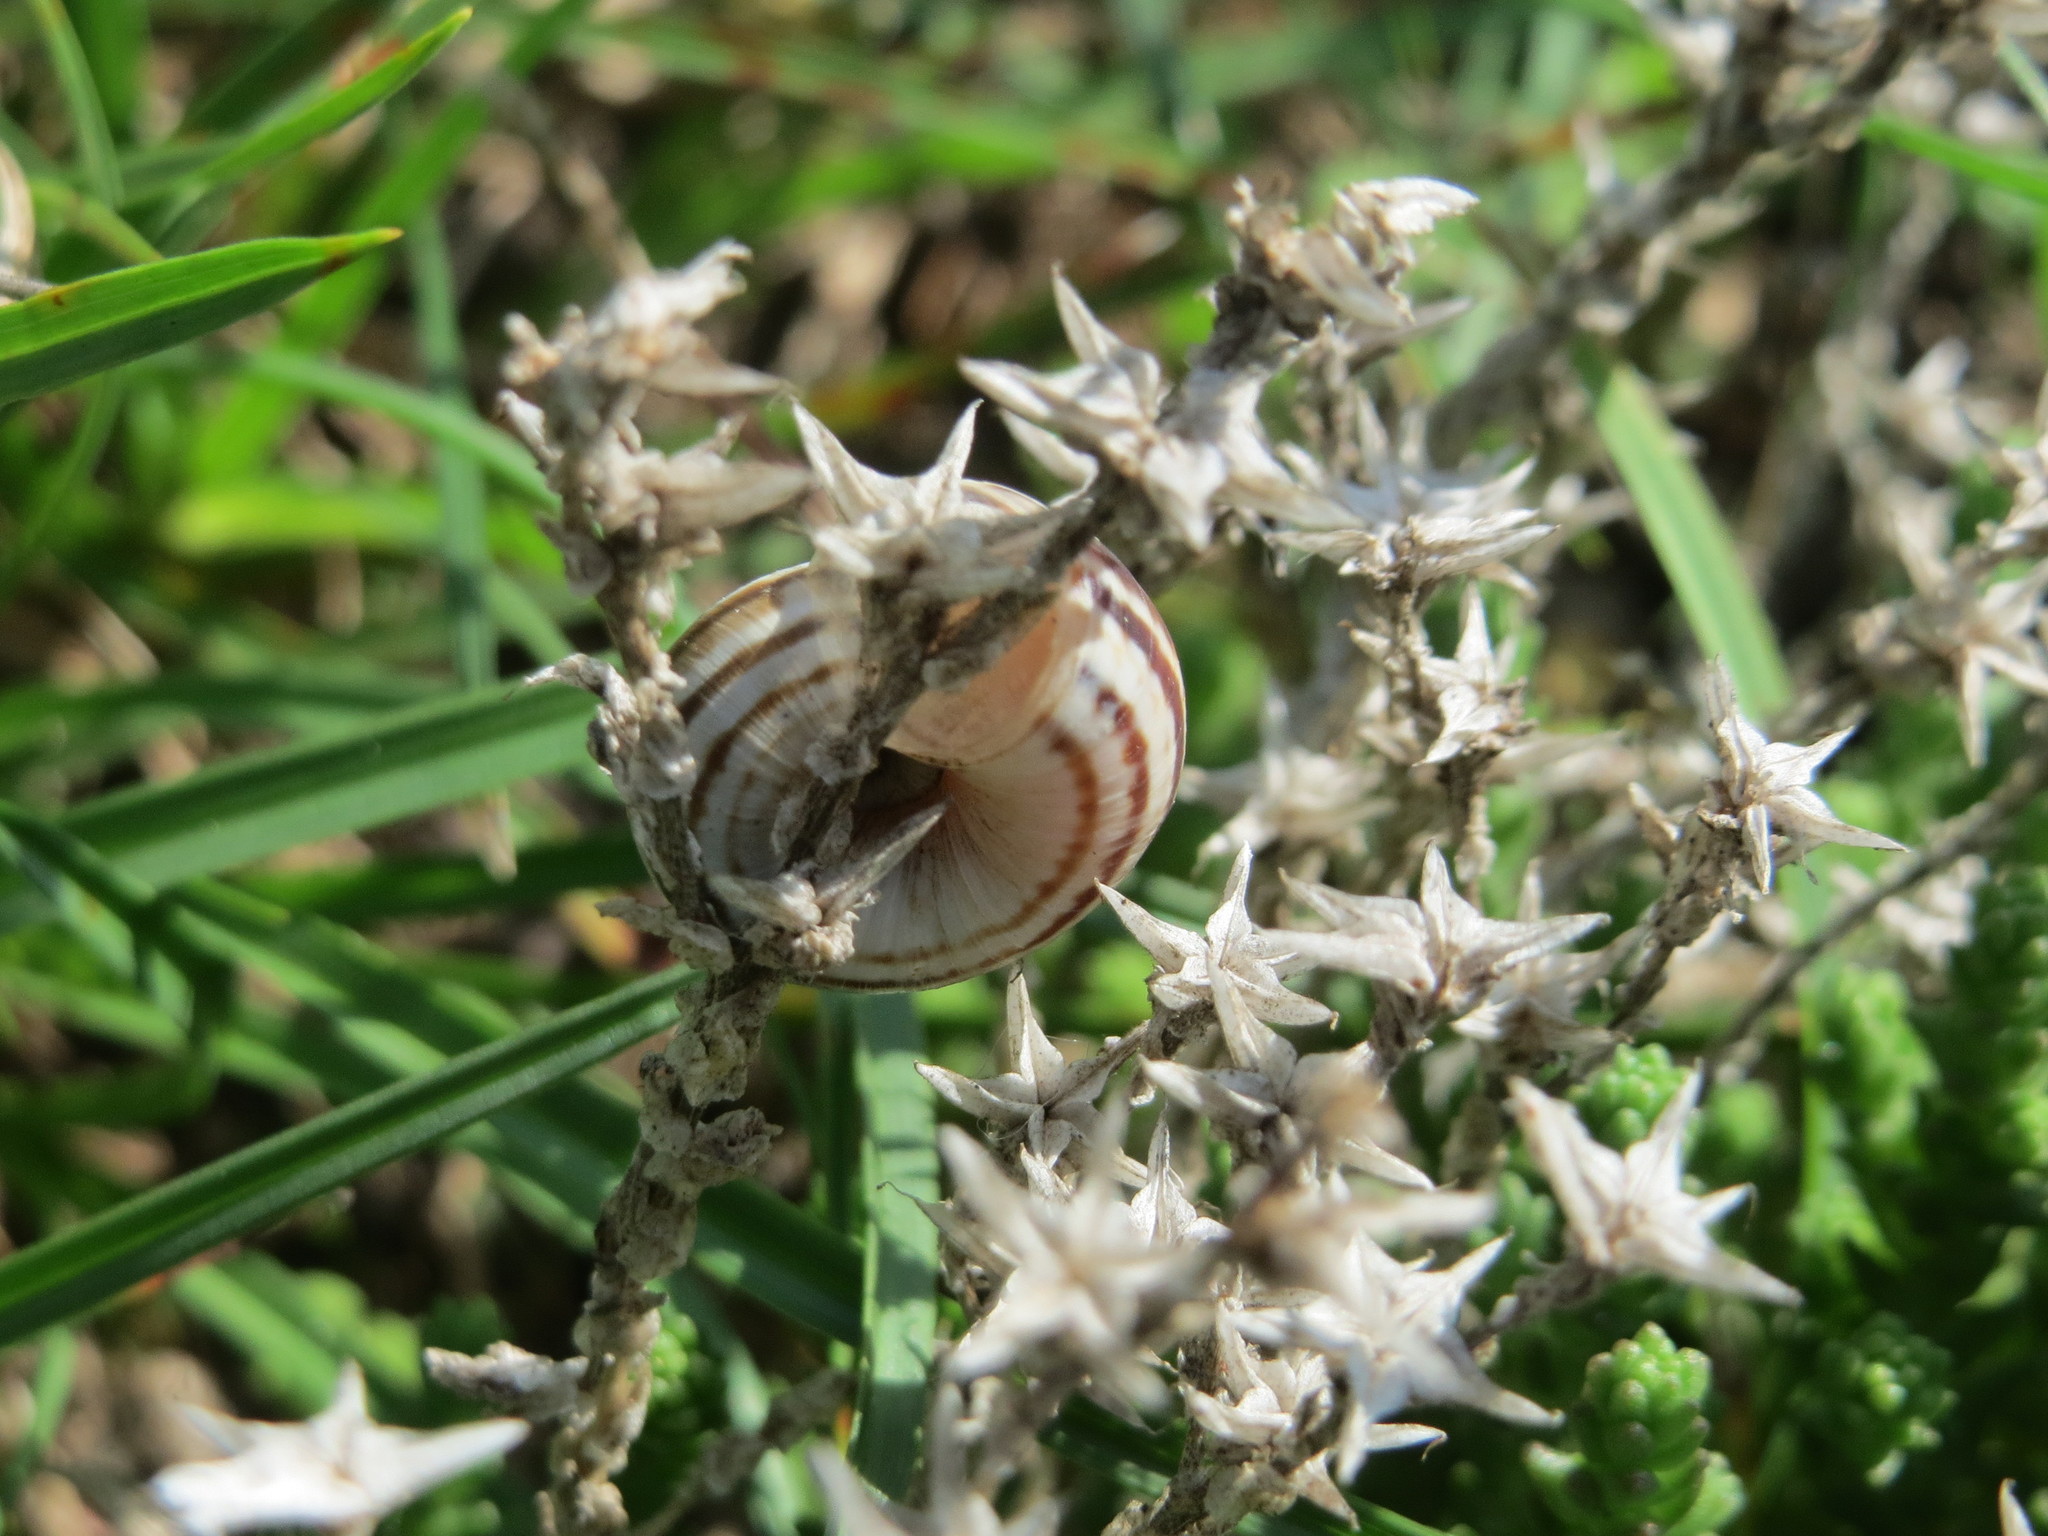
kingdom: Animalia
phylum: Mollusca
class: Gastropoda
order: Stylommatophora
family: Geomitridae
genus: Helicella
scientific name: Helicella itala
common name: Heath snail
